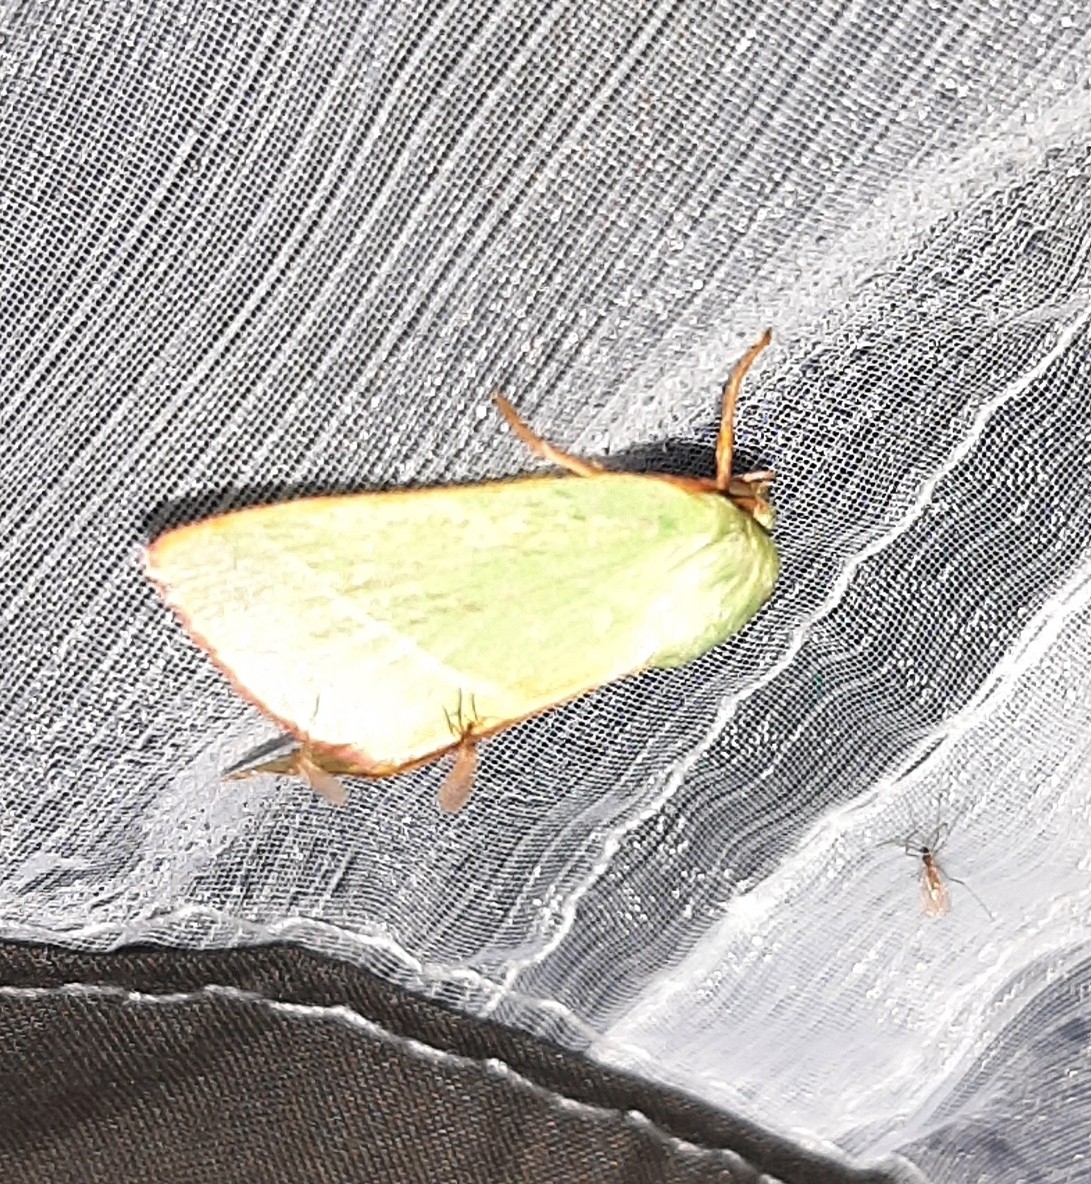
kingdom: Animalia
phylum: Arthropoda
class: Insecta
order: Lepidoptera
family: Nolidae
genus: Pseudoips
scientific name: Pseudoips prasinana
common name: Green silver-lines
